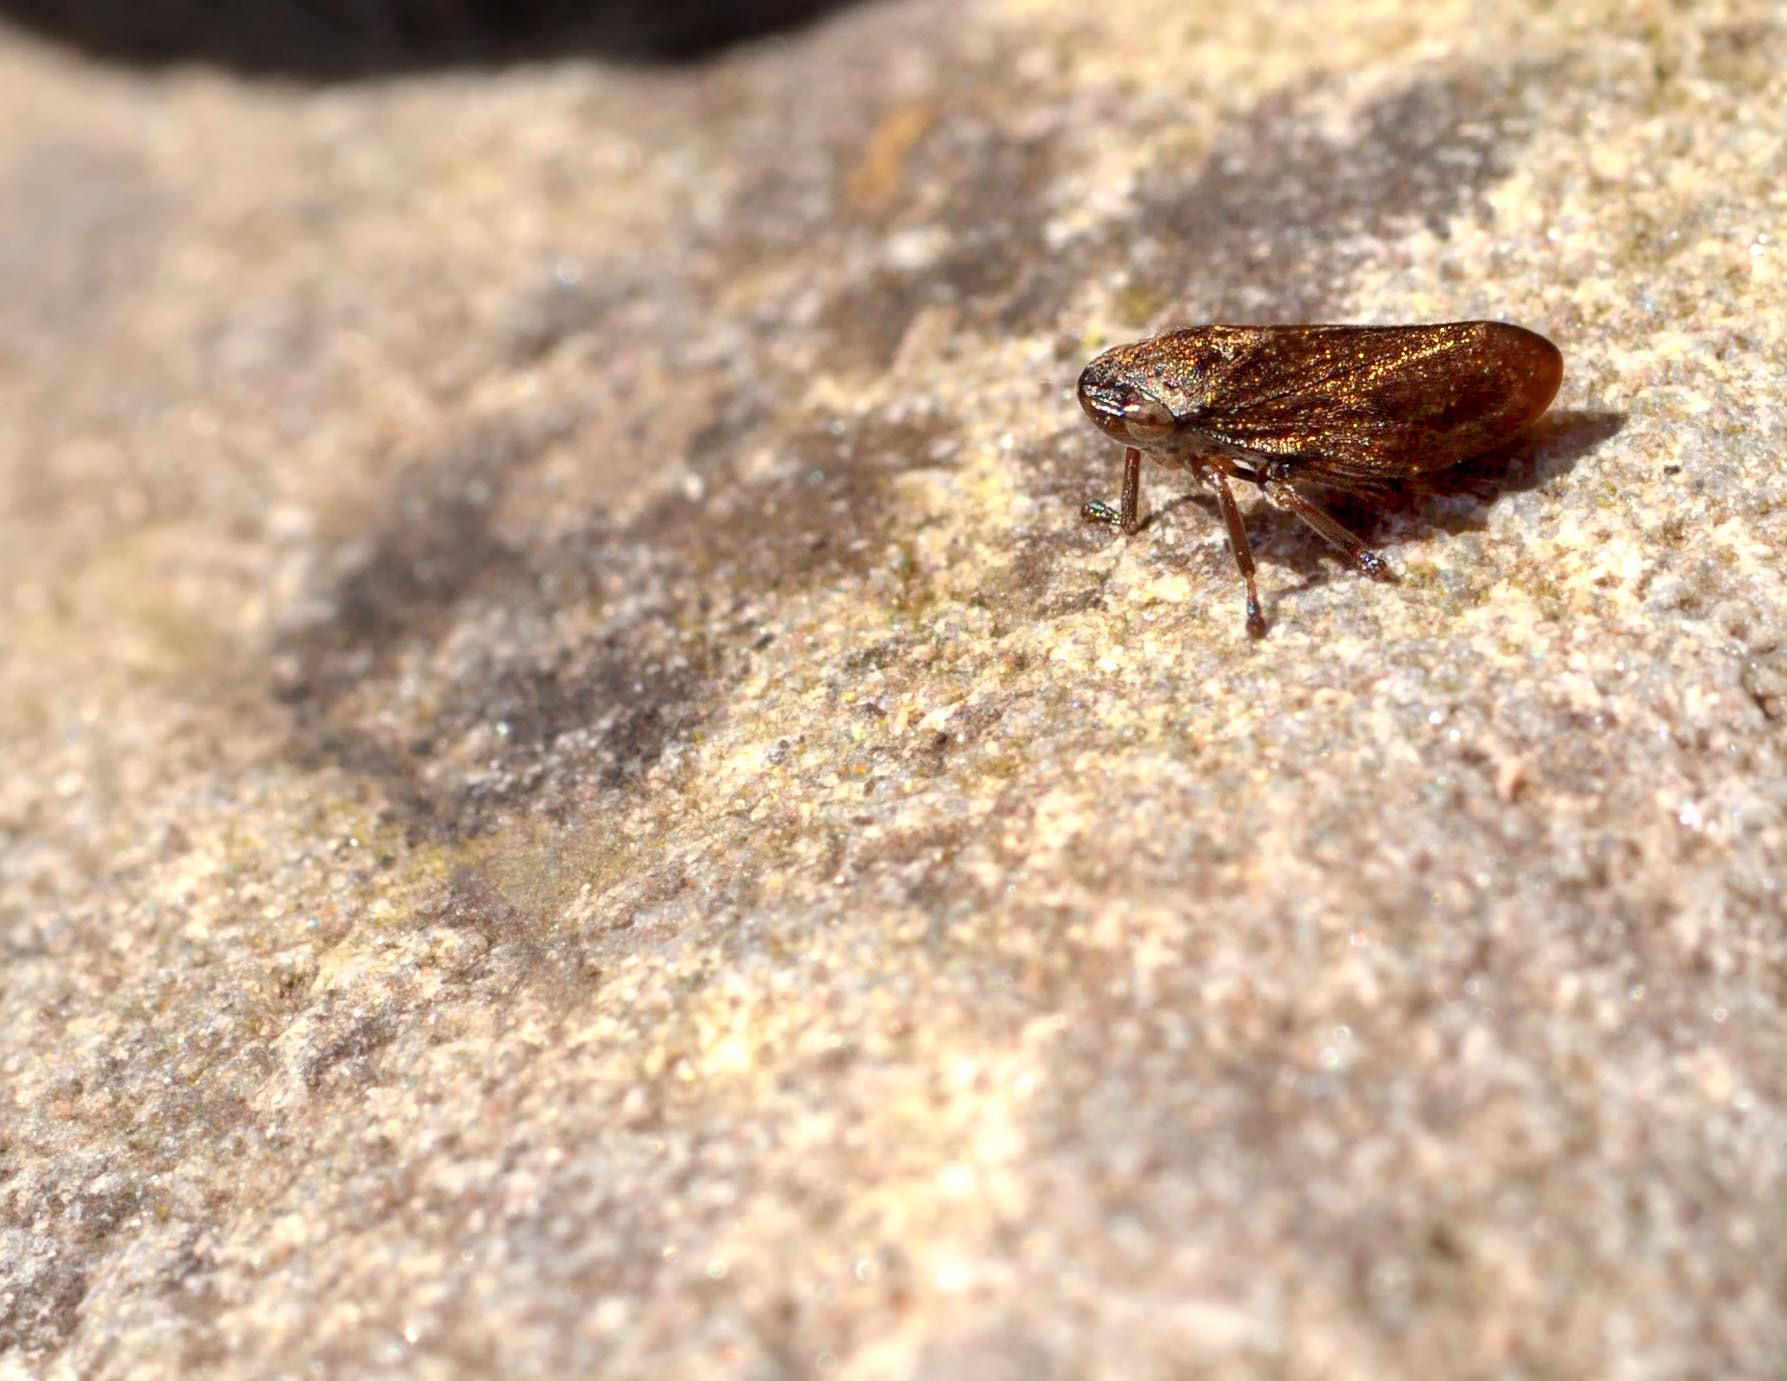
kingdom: Animalia
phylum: Arthropoda
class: Insecta
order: Hemiptera
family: Aphrophoridae
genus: Philaenus
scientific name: Philaenus spumarius
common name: Meadow spittlebug
